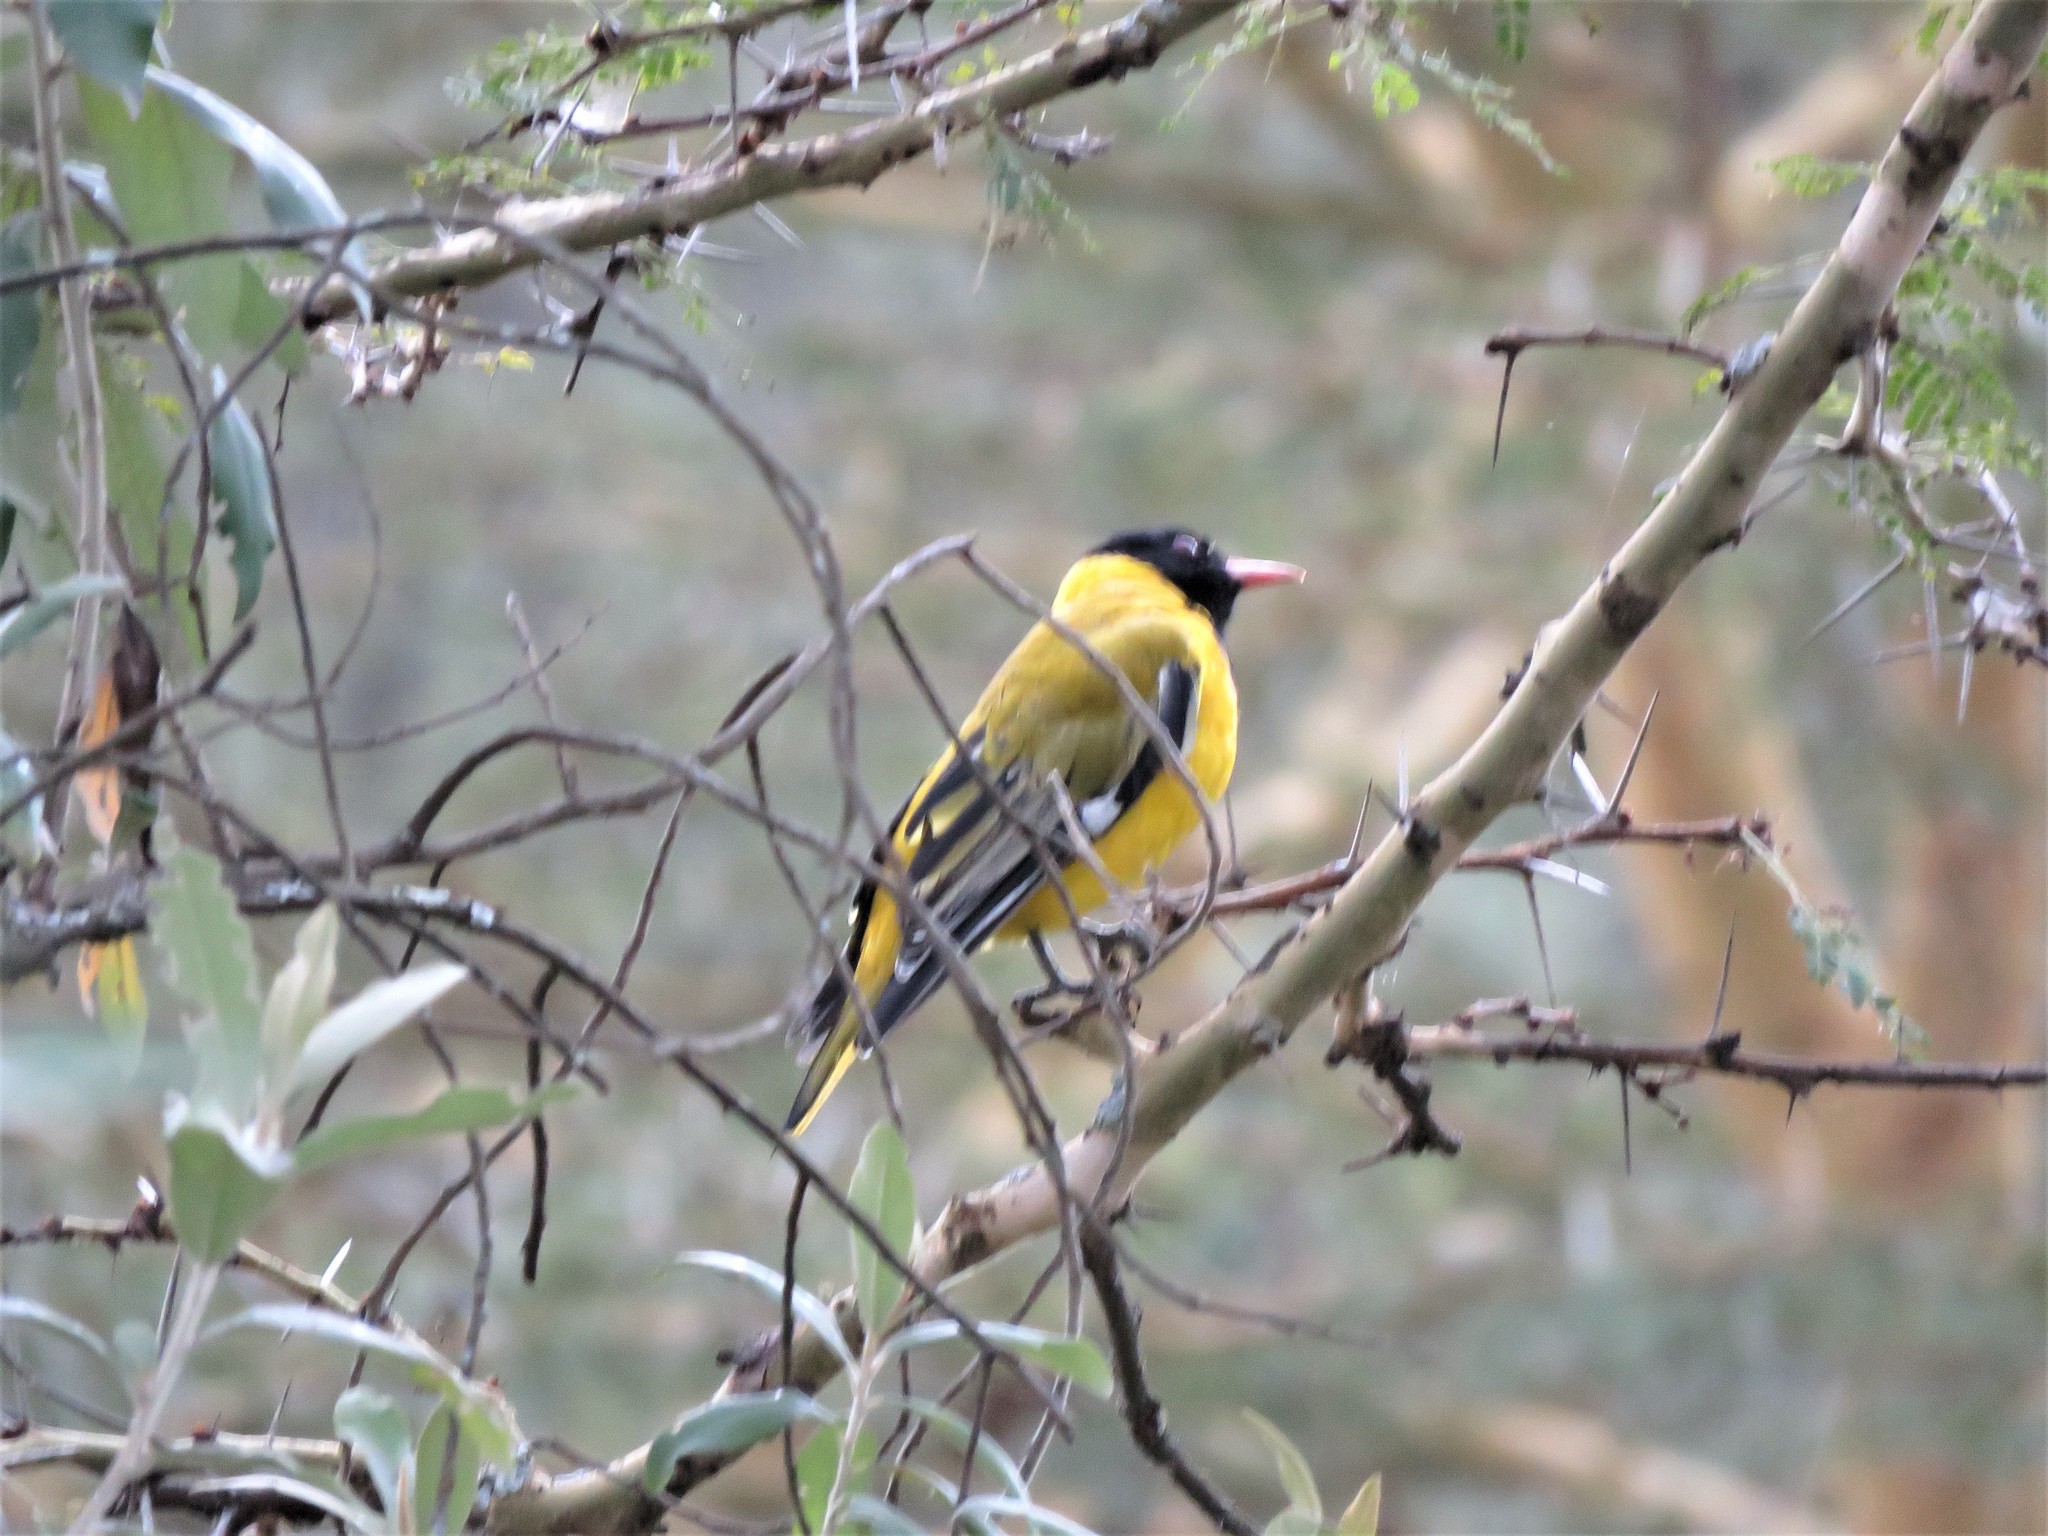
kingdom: Animalia
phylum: Chordata
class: Aves
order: Passeriformes
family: Oriolidae
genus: Oriolus
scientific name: Oriolus larvatus
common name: Black-headed oriole
